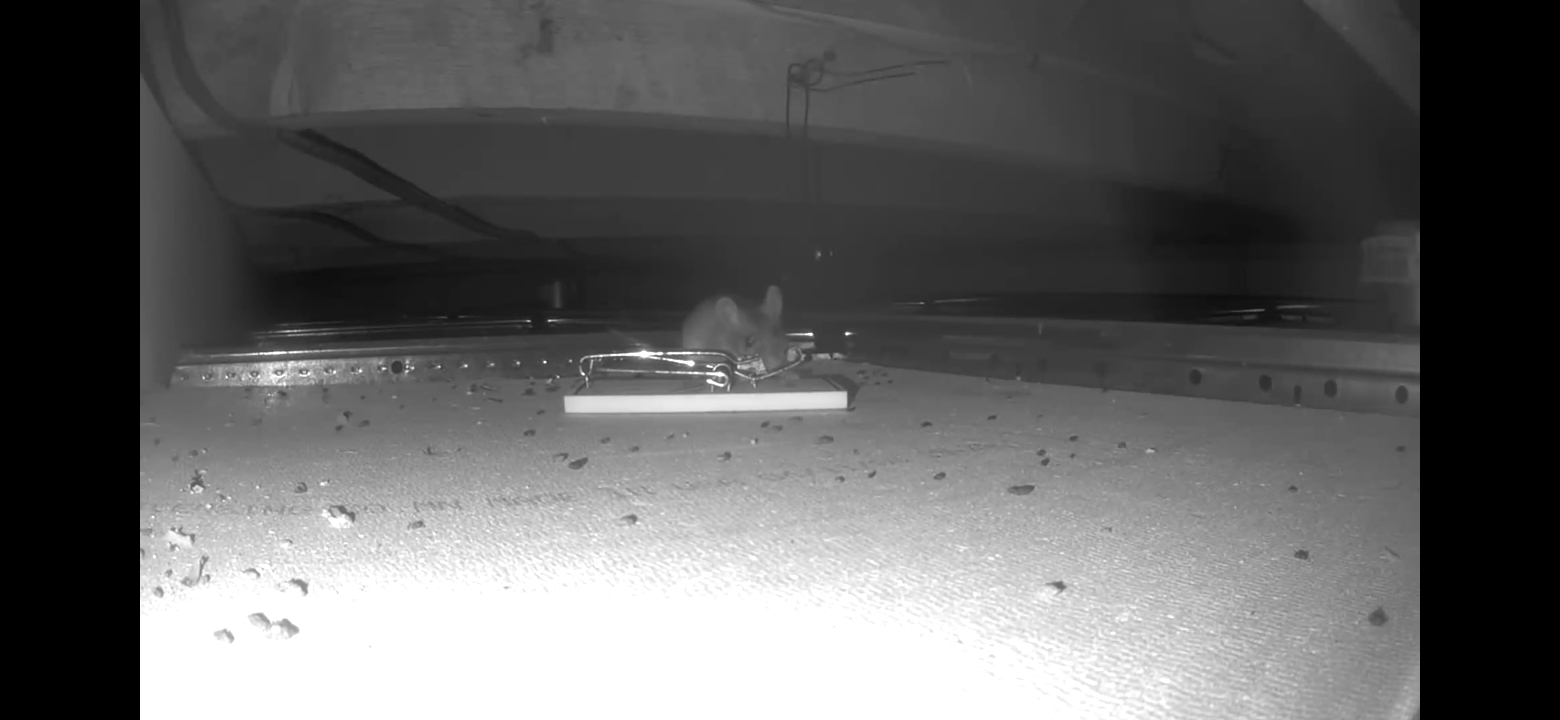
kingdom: Animalia
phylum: Chordata
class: Mammalia
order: Rodentia
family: Cricetidae
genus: Peromyscus
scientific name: Peromyscus maniculatus
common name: Deer mouse
